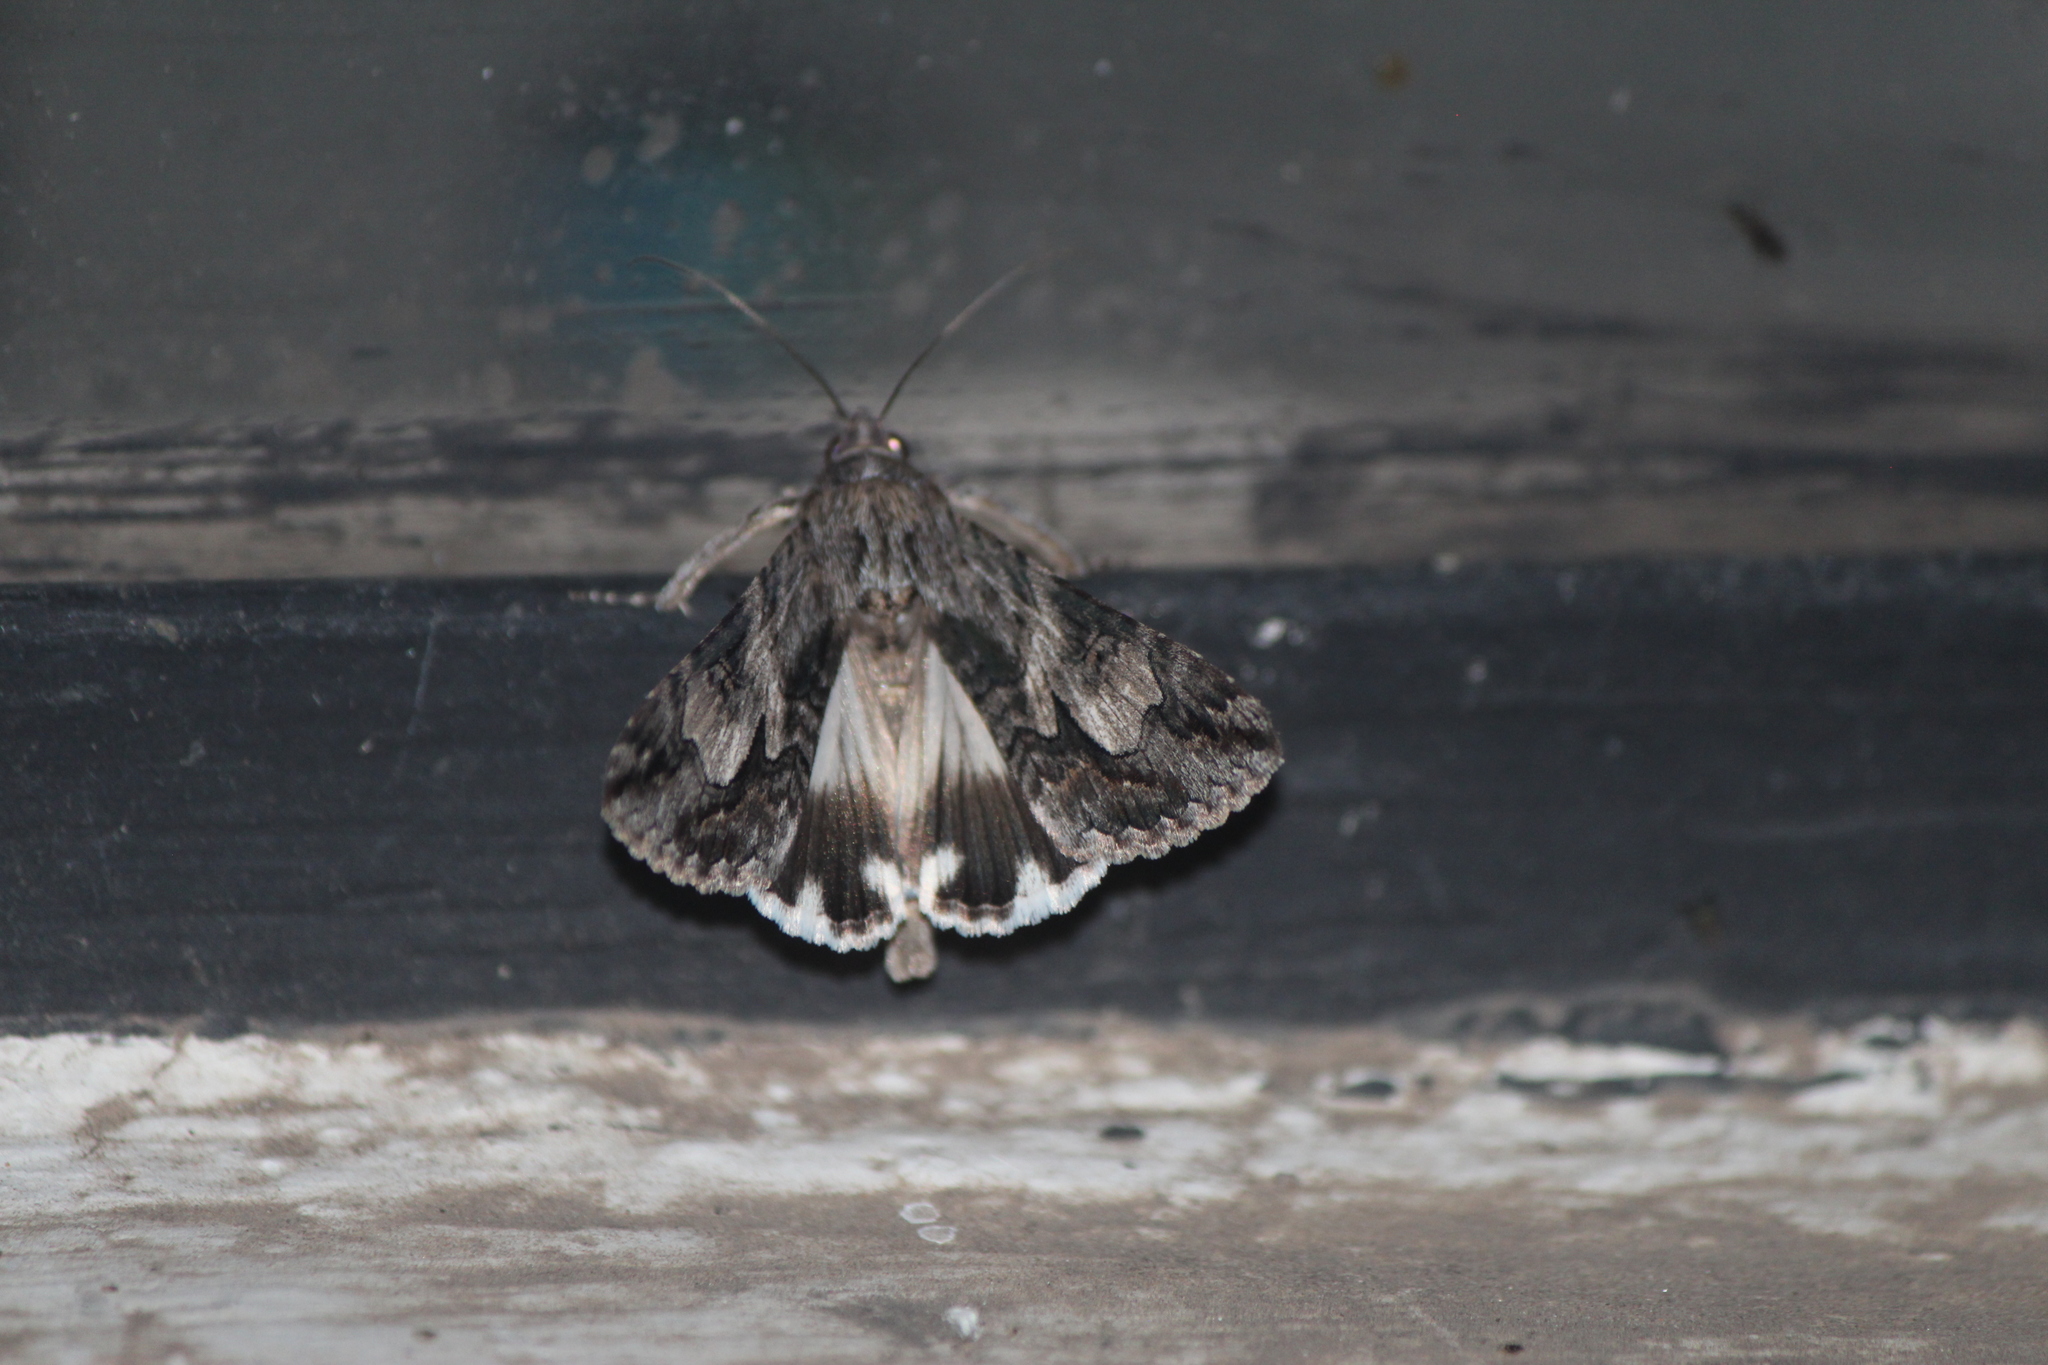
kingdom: Animalia
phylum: Arthropoda
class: Insecta
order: Lepidoptera
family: Erebidae
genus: Melipotis
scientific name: Melipotis jucunda
